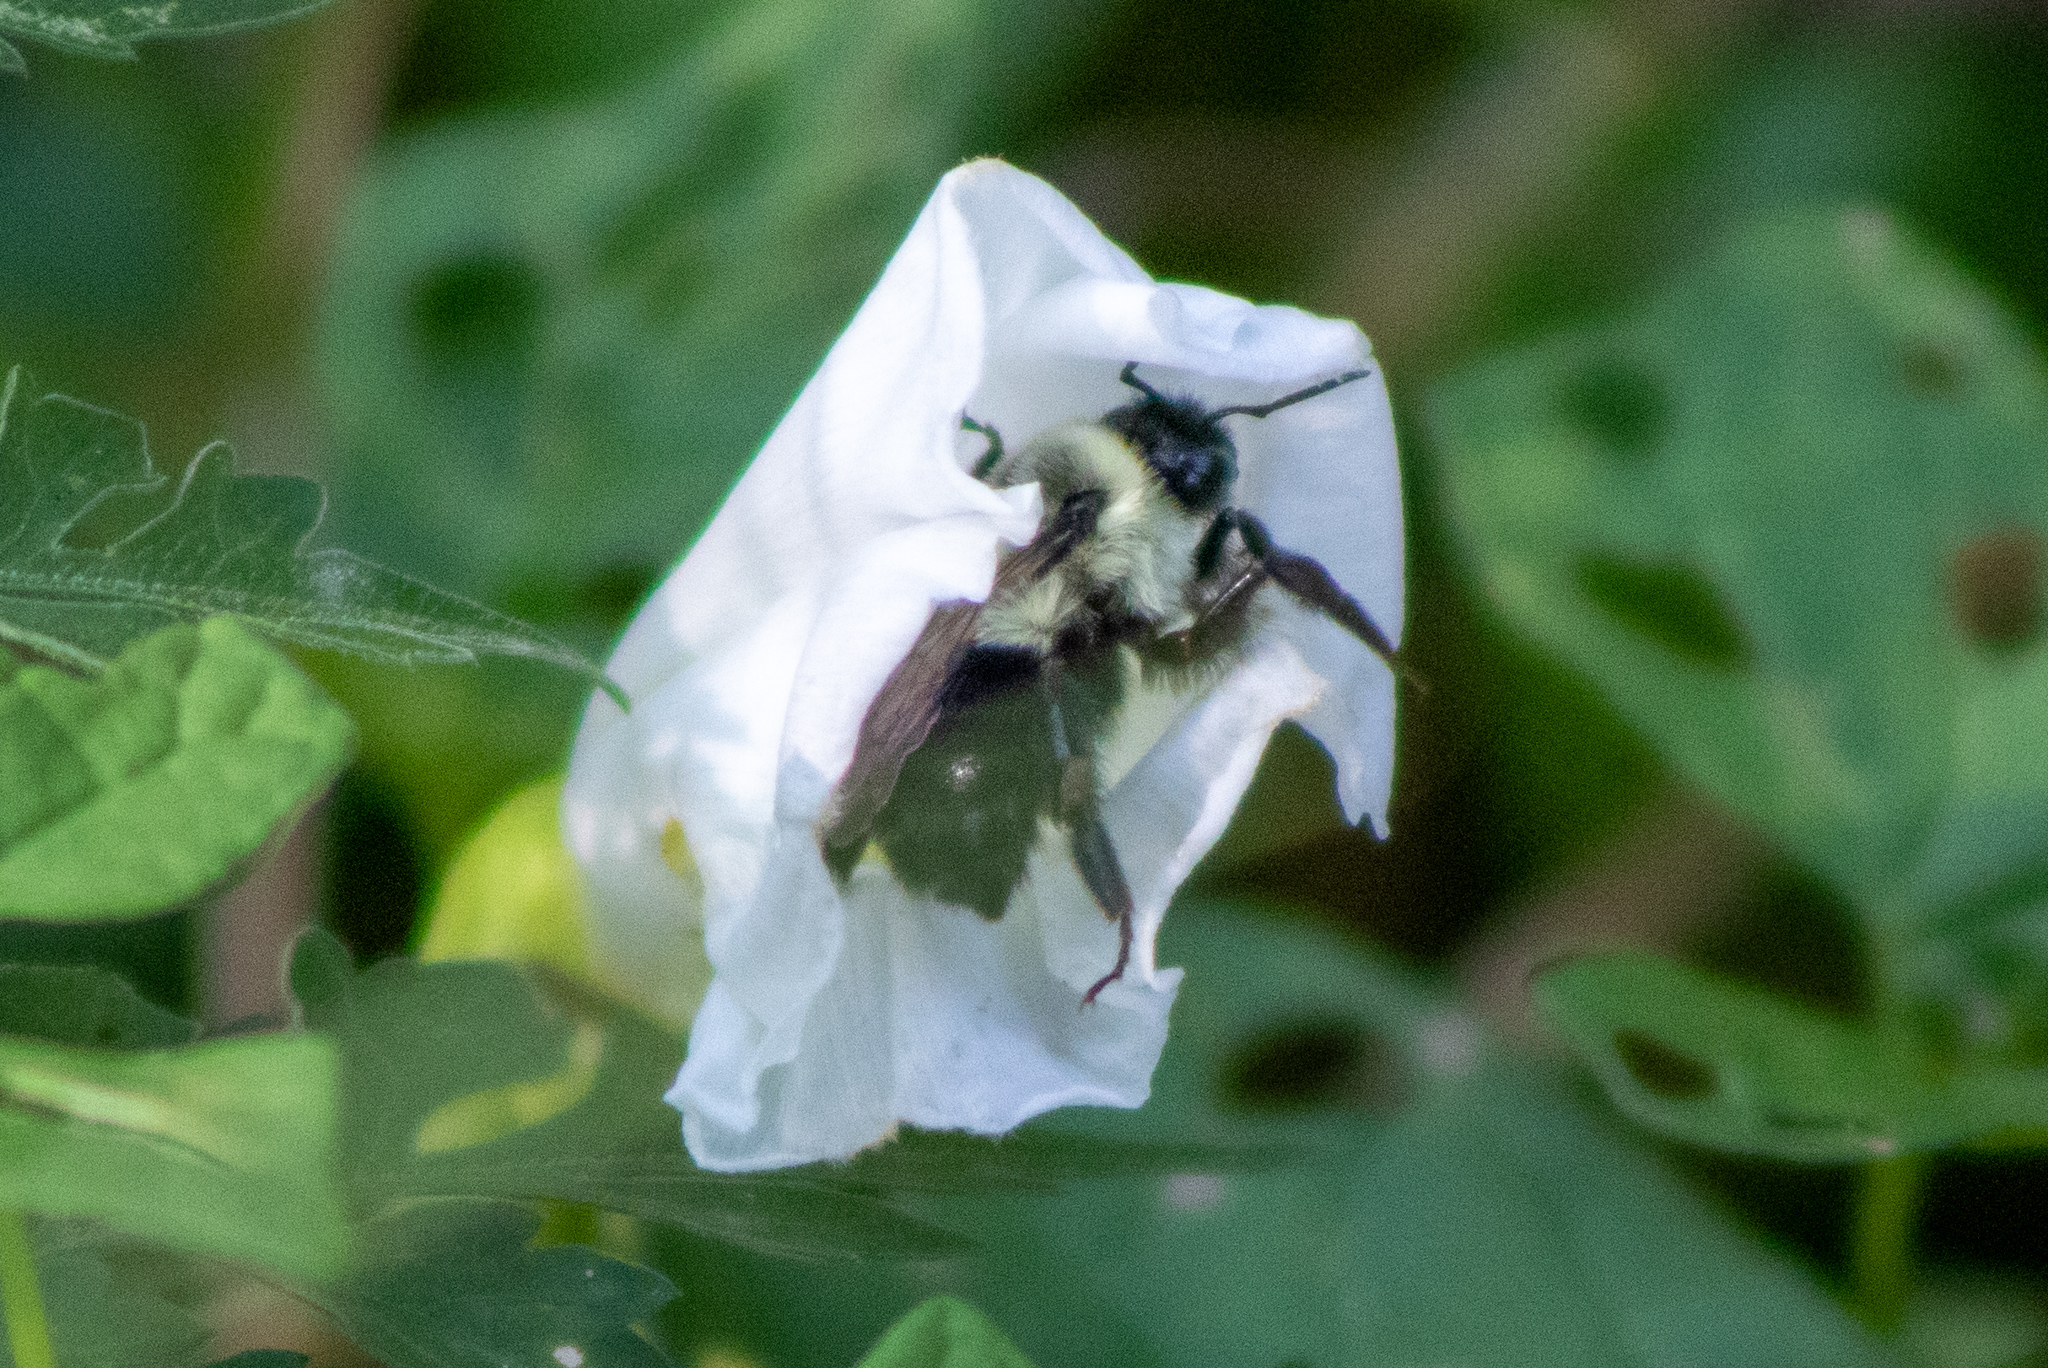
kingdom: Animalia
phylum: Arthropoda
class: Insecta
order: Hymenoptera
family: Apidae
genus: Bombus
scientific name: Bombus impatiens
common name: Common eastern bumble bee
